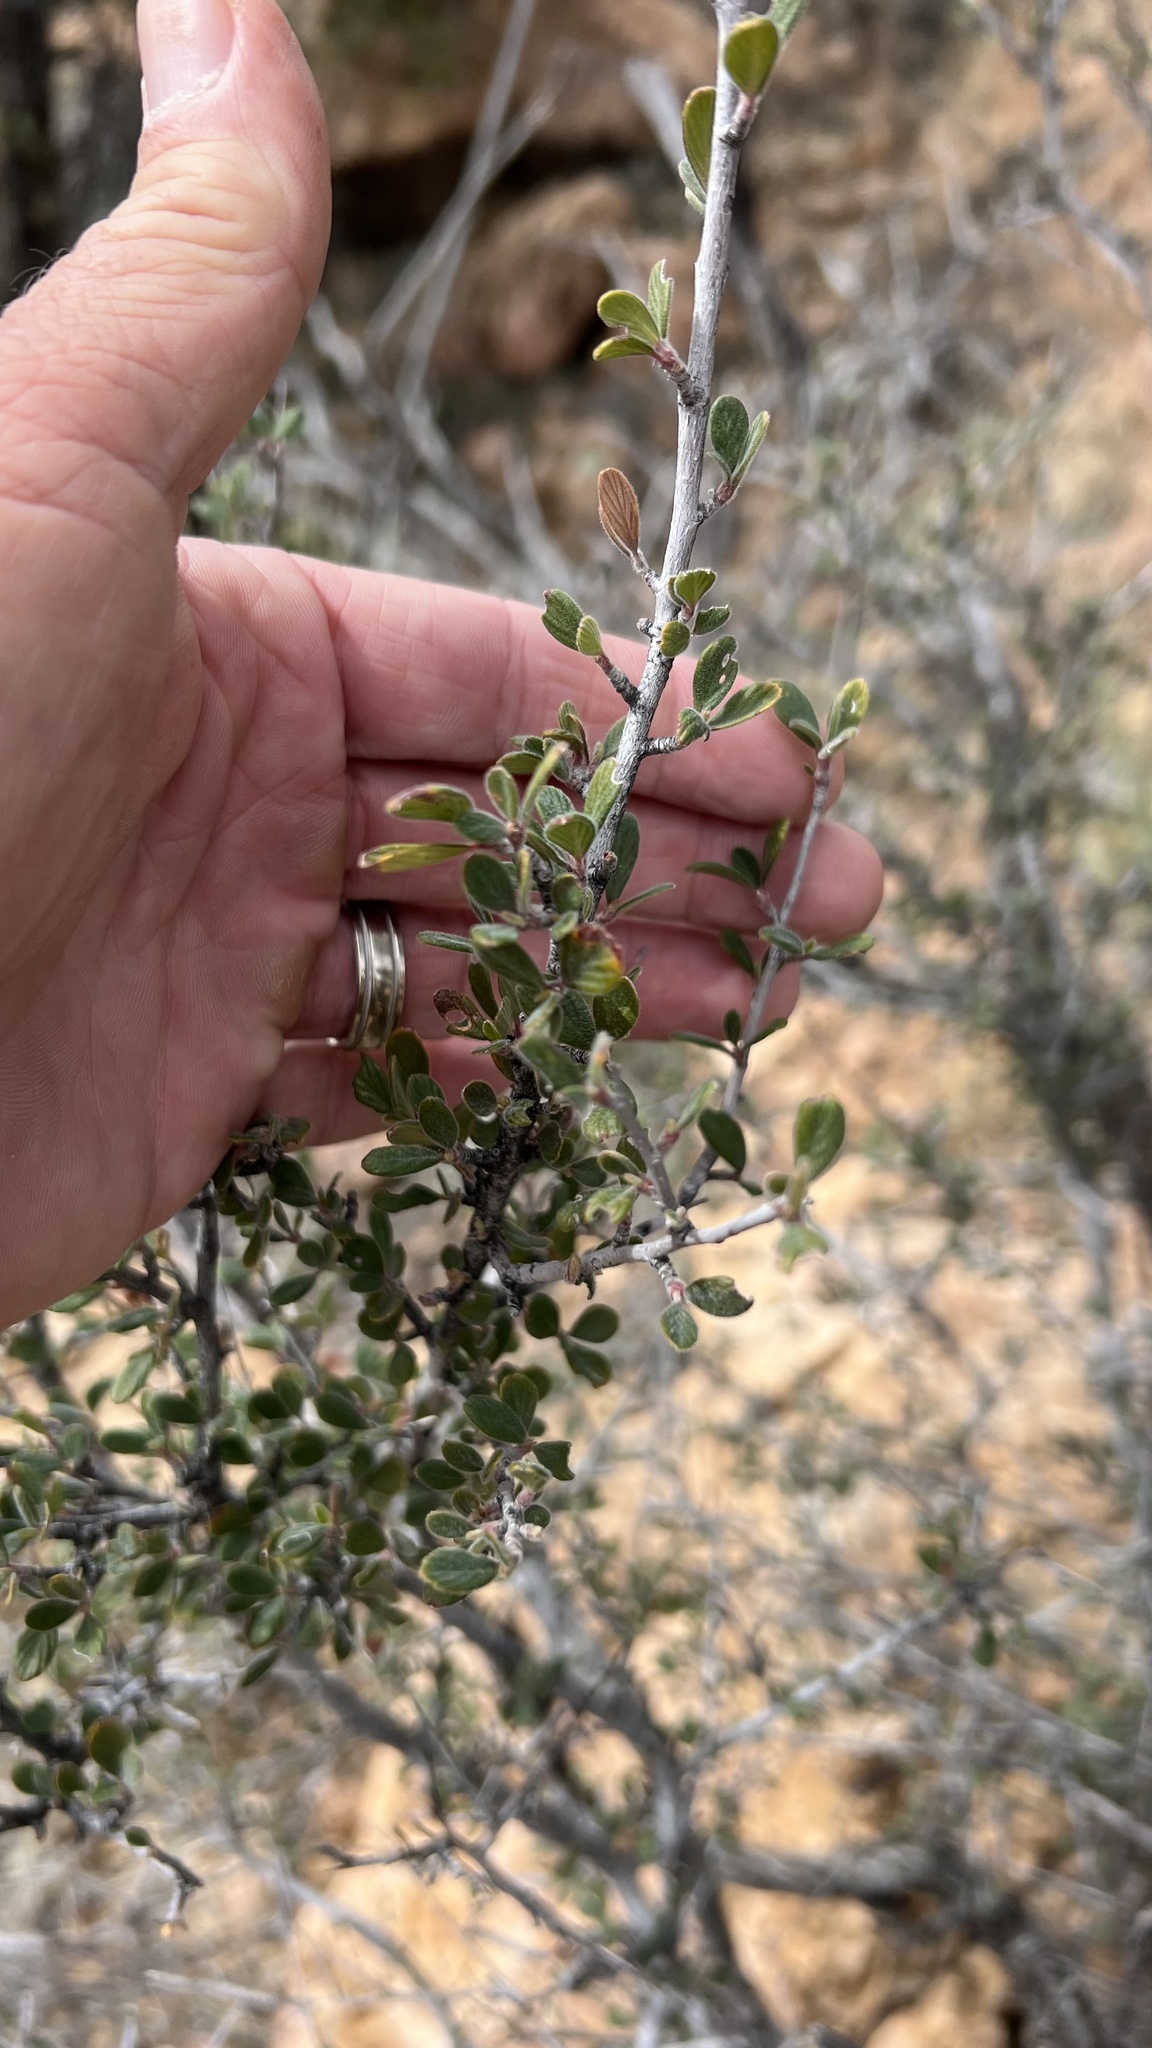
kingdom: Plantae
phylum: Tracheophyta
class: Magnoliopsida
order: Rosales
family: Rosaceae
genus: Cercocarpus
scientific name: Cercocarpus breviflorus
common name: Wright's mountain-mahogany
